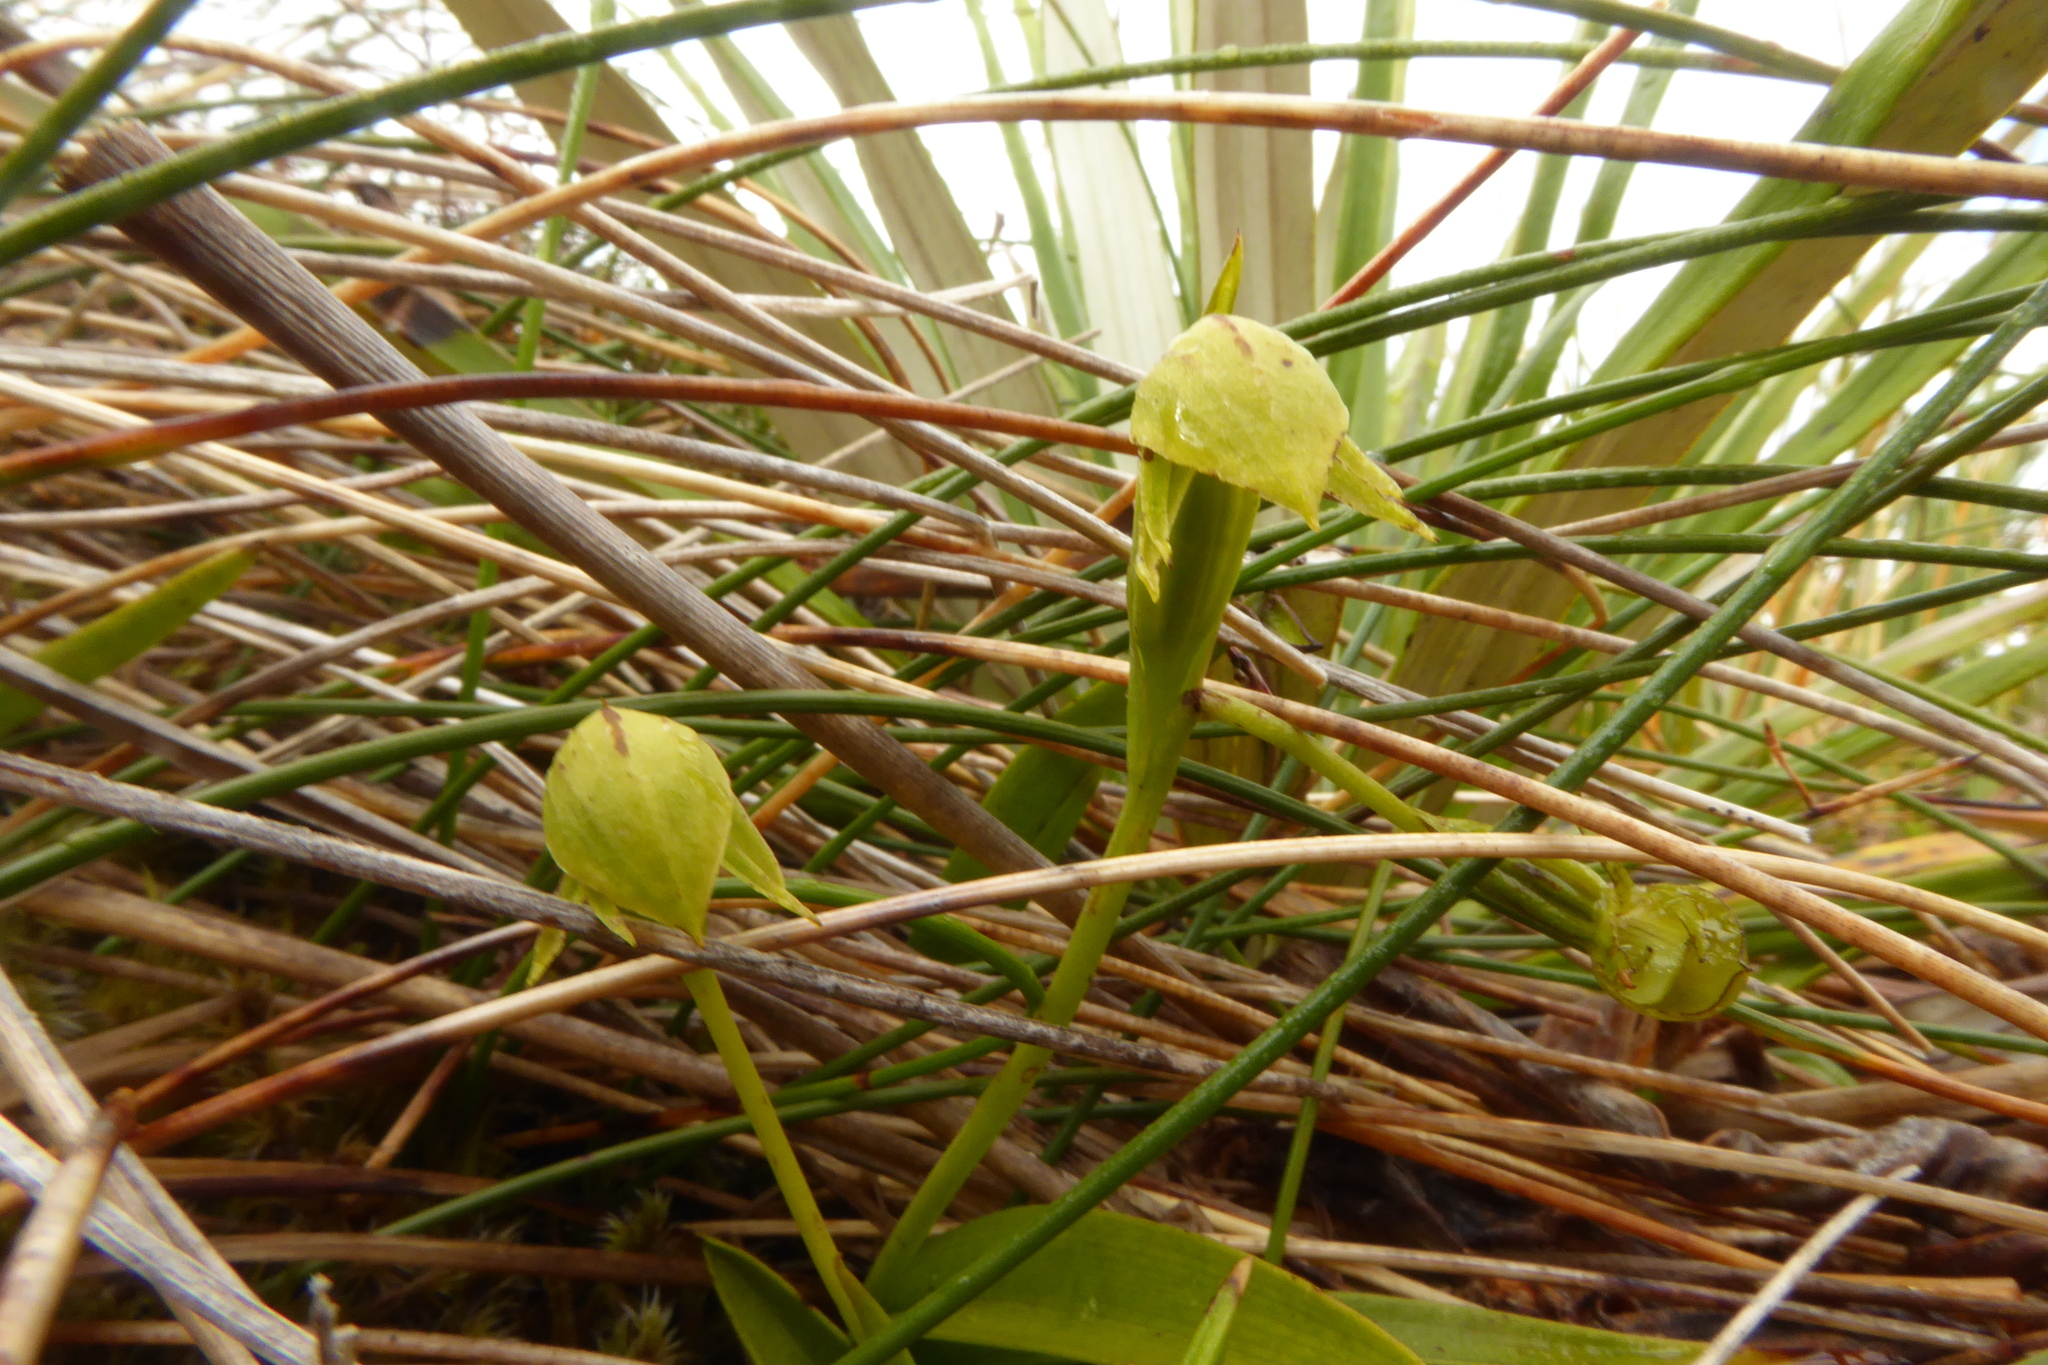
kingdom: Plantae
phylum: Tracheophyta
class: Liliopsida
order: Asparagales
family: Orchidaceae
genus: Waireia
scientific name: Waireia stenopetala
